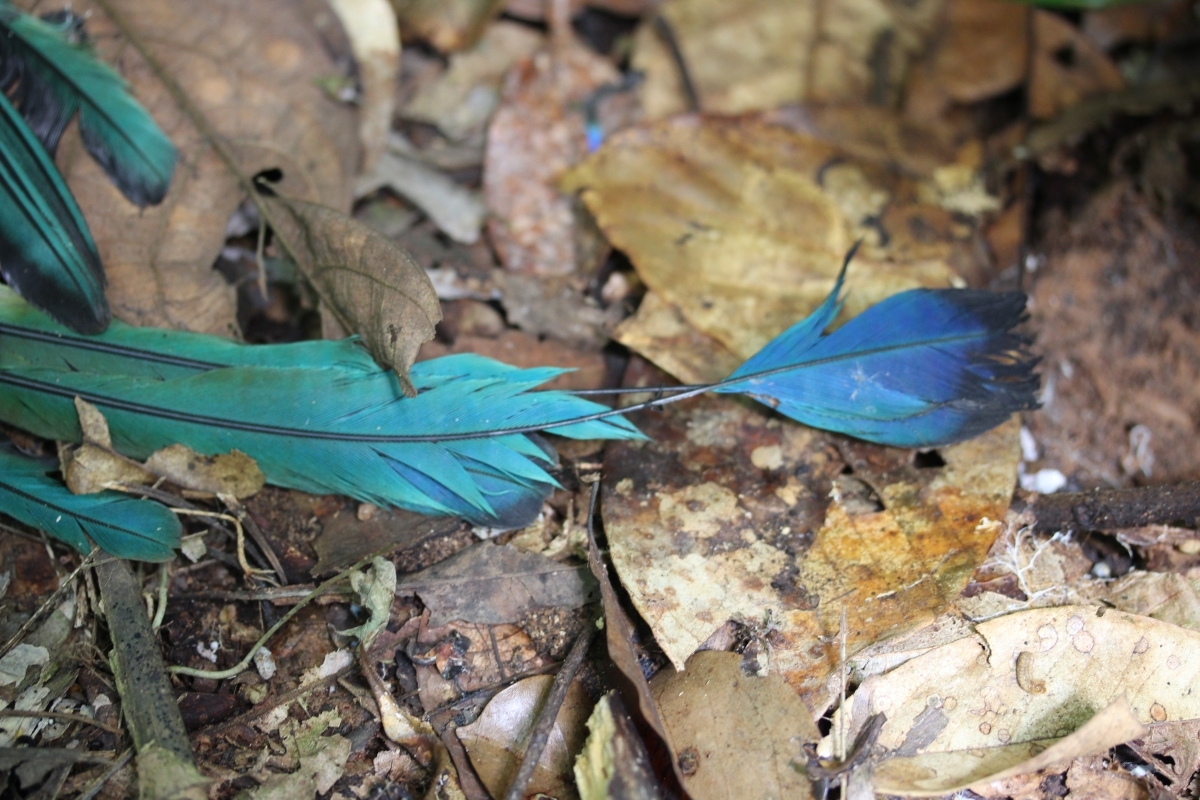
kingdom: Animalia
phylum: Chordata
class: Aves
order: Coraciiformes
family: Momotidae
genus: Momotus
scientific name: Momotus momota
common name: Amazonian motmot
